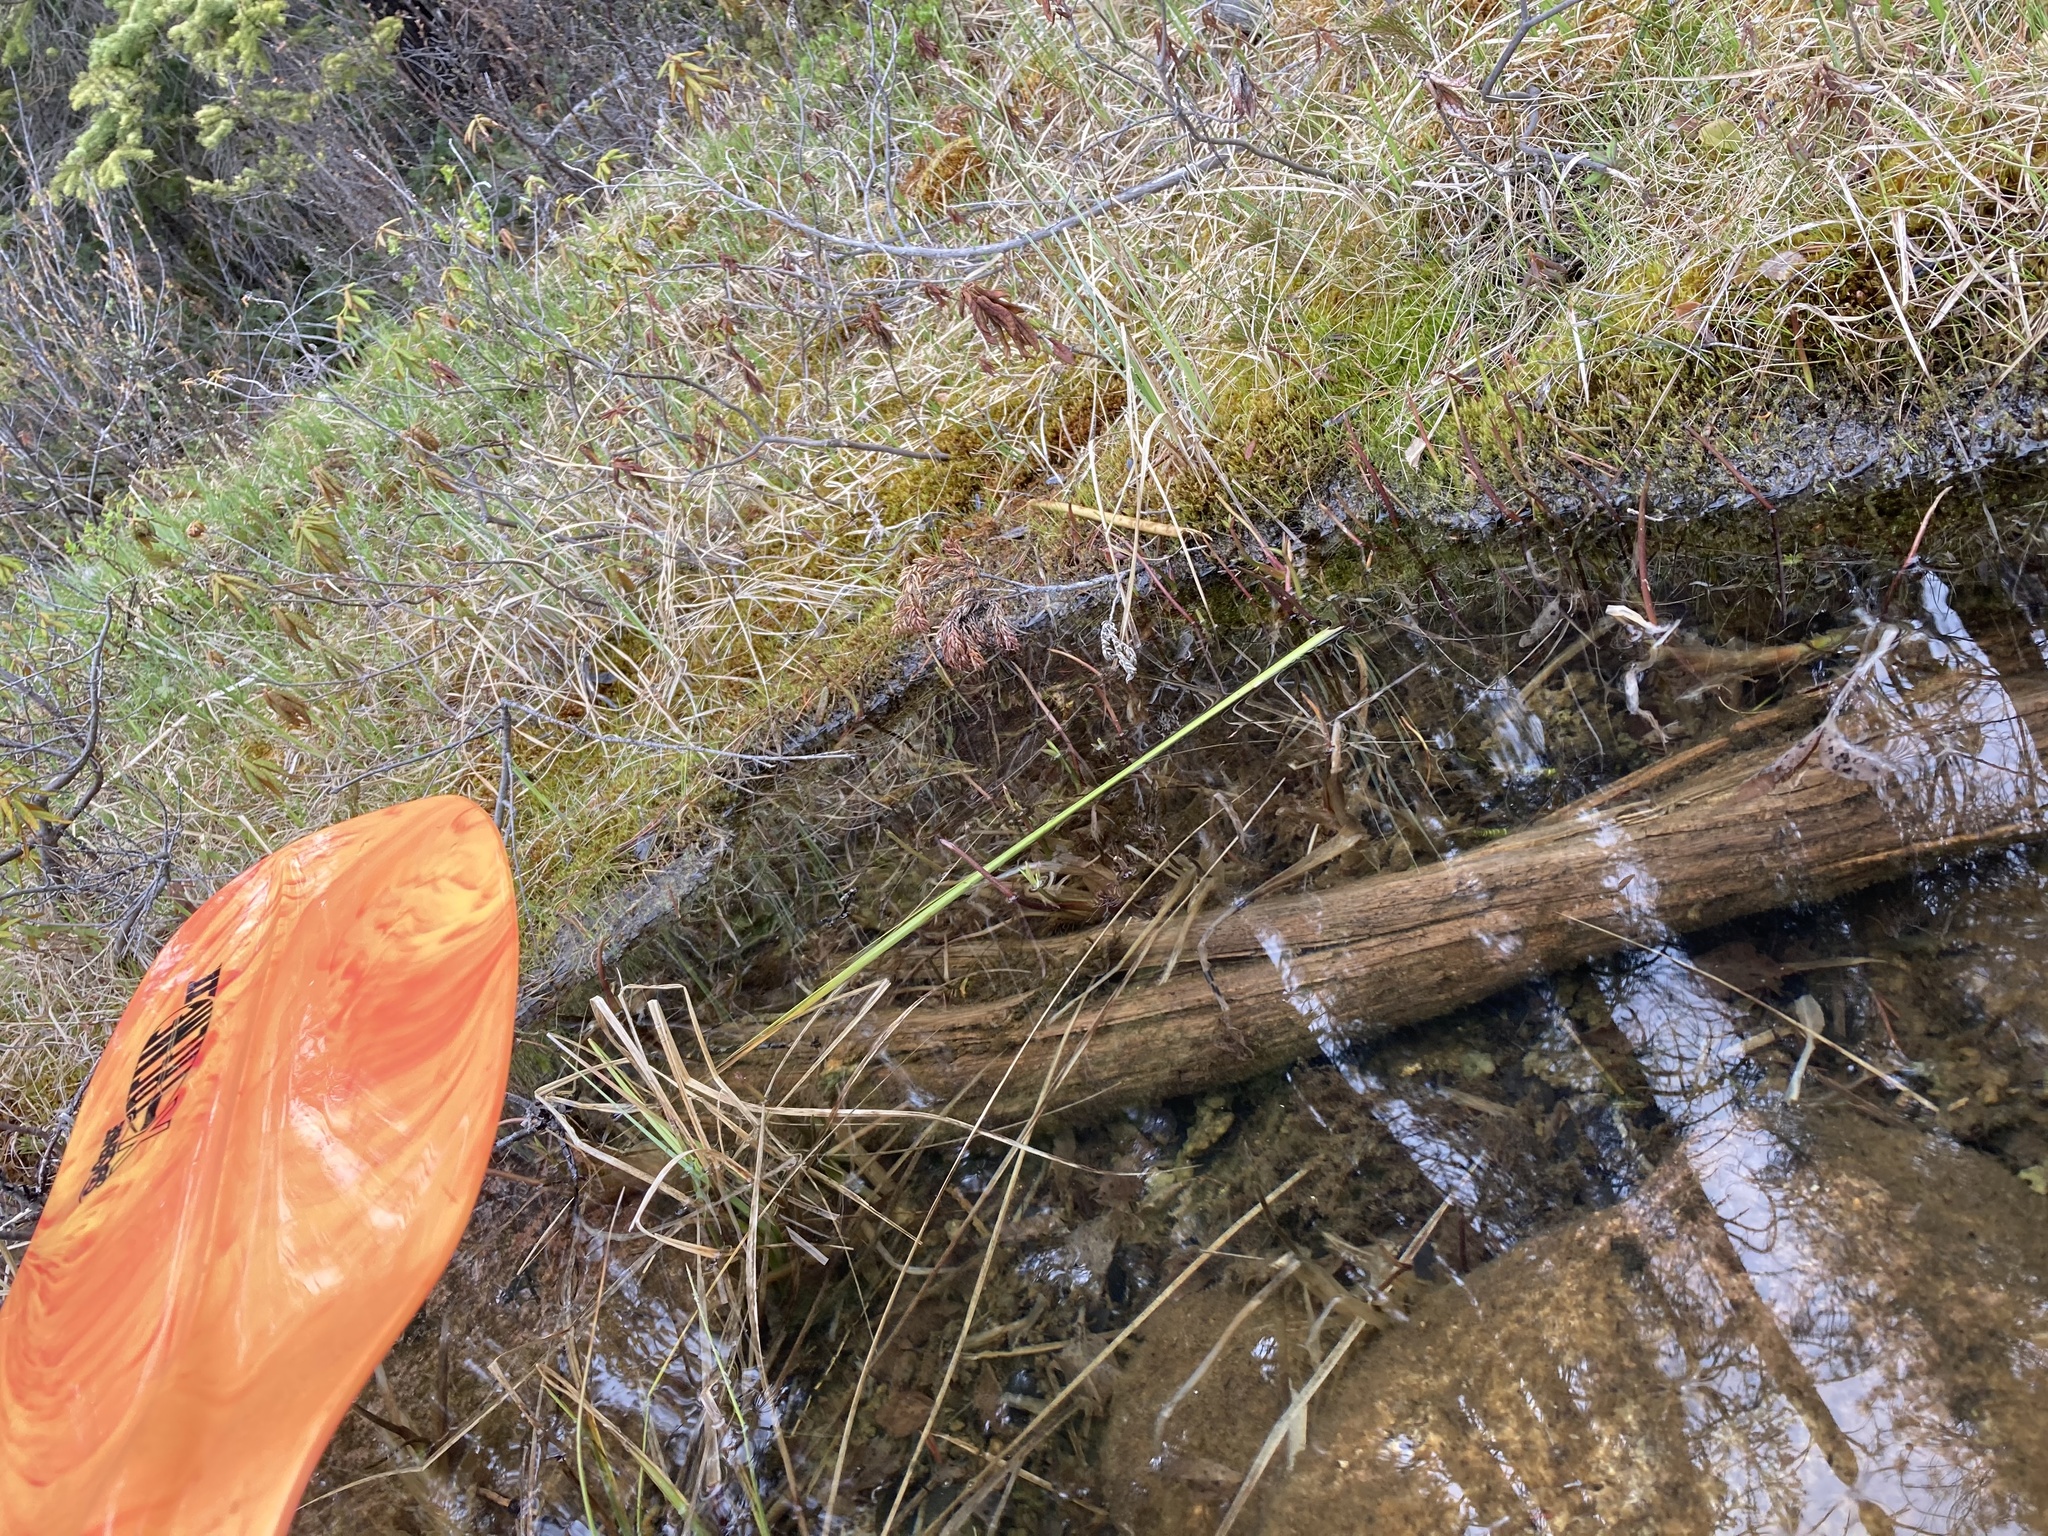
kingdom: Plantae
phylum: Tracheophyta
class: Magnoliopsida
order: Asterales
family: Menyanthaceae
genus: Menyanthes
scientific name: Menyanthes trifoliata
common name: Bogbean
